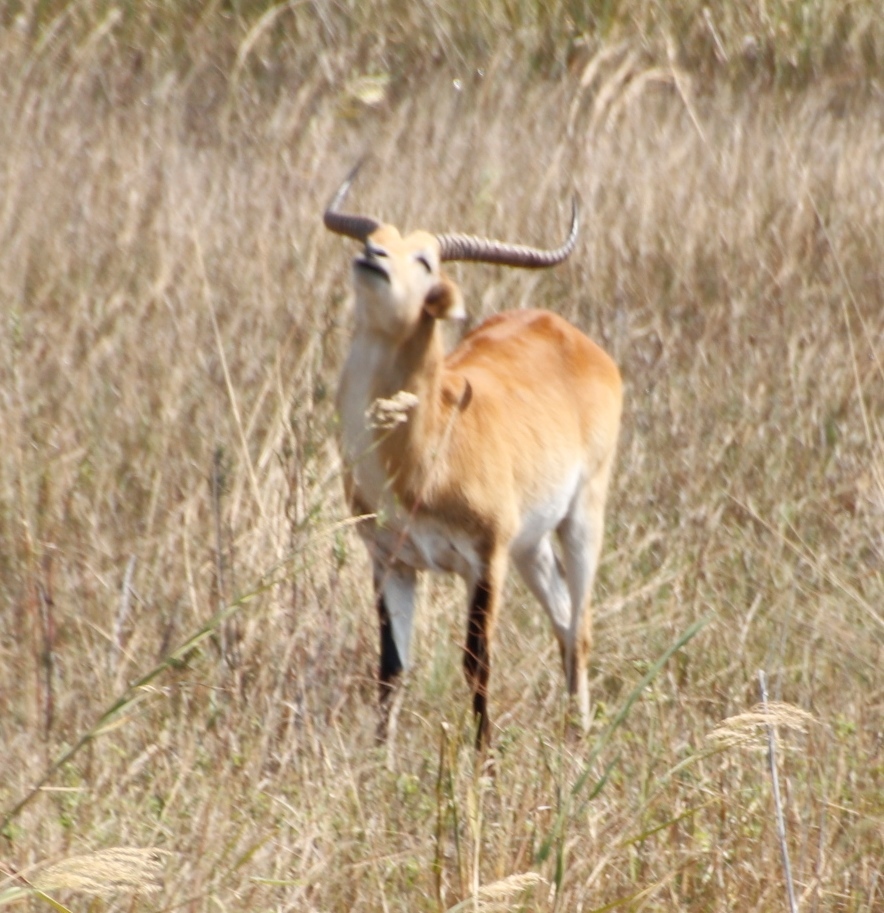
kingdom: Animalia
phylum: Chordata
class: Mammalia
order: Artiodactyla
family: Bovidae
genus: Kobus
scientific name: Kobus leche
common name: Lechwe
